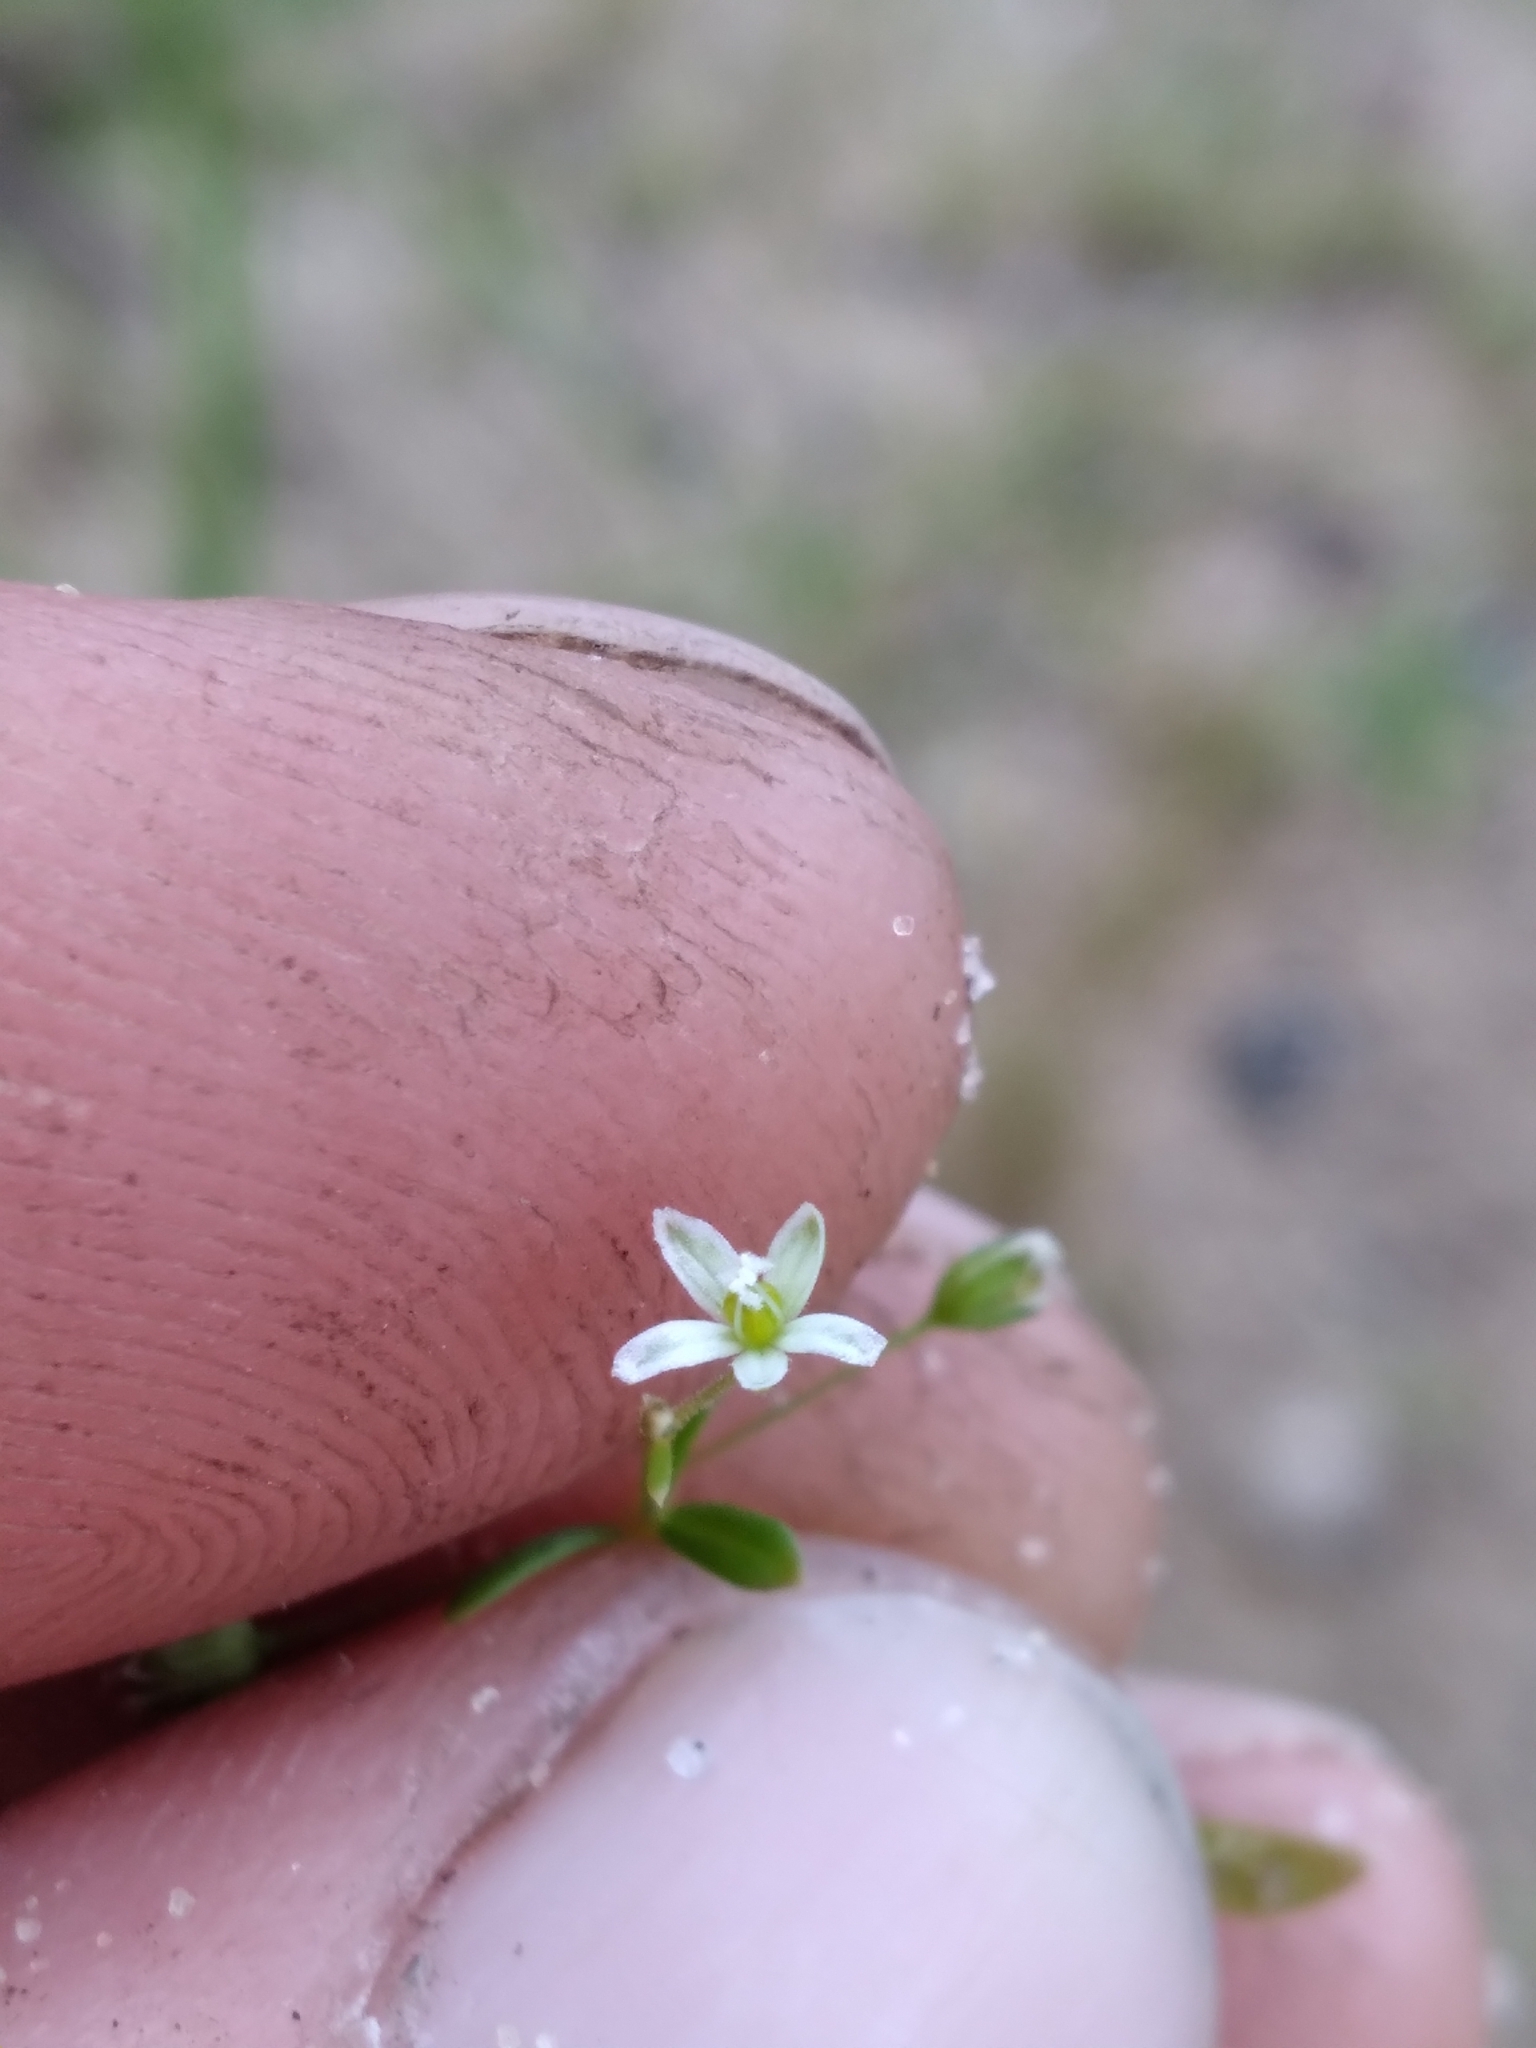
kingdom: Plantae
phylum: Tracheophyta
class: Magnoliopsida
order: Caryophyllales
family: Molluginaceae
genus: Mollugo
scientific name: Mollugo verticillata
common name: Green carpetweed
